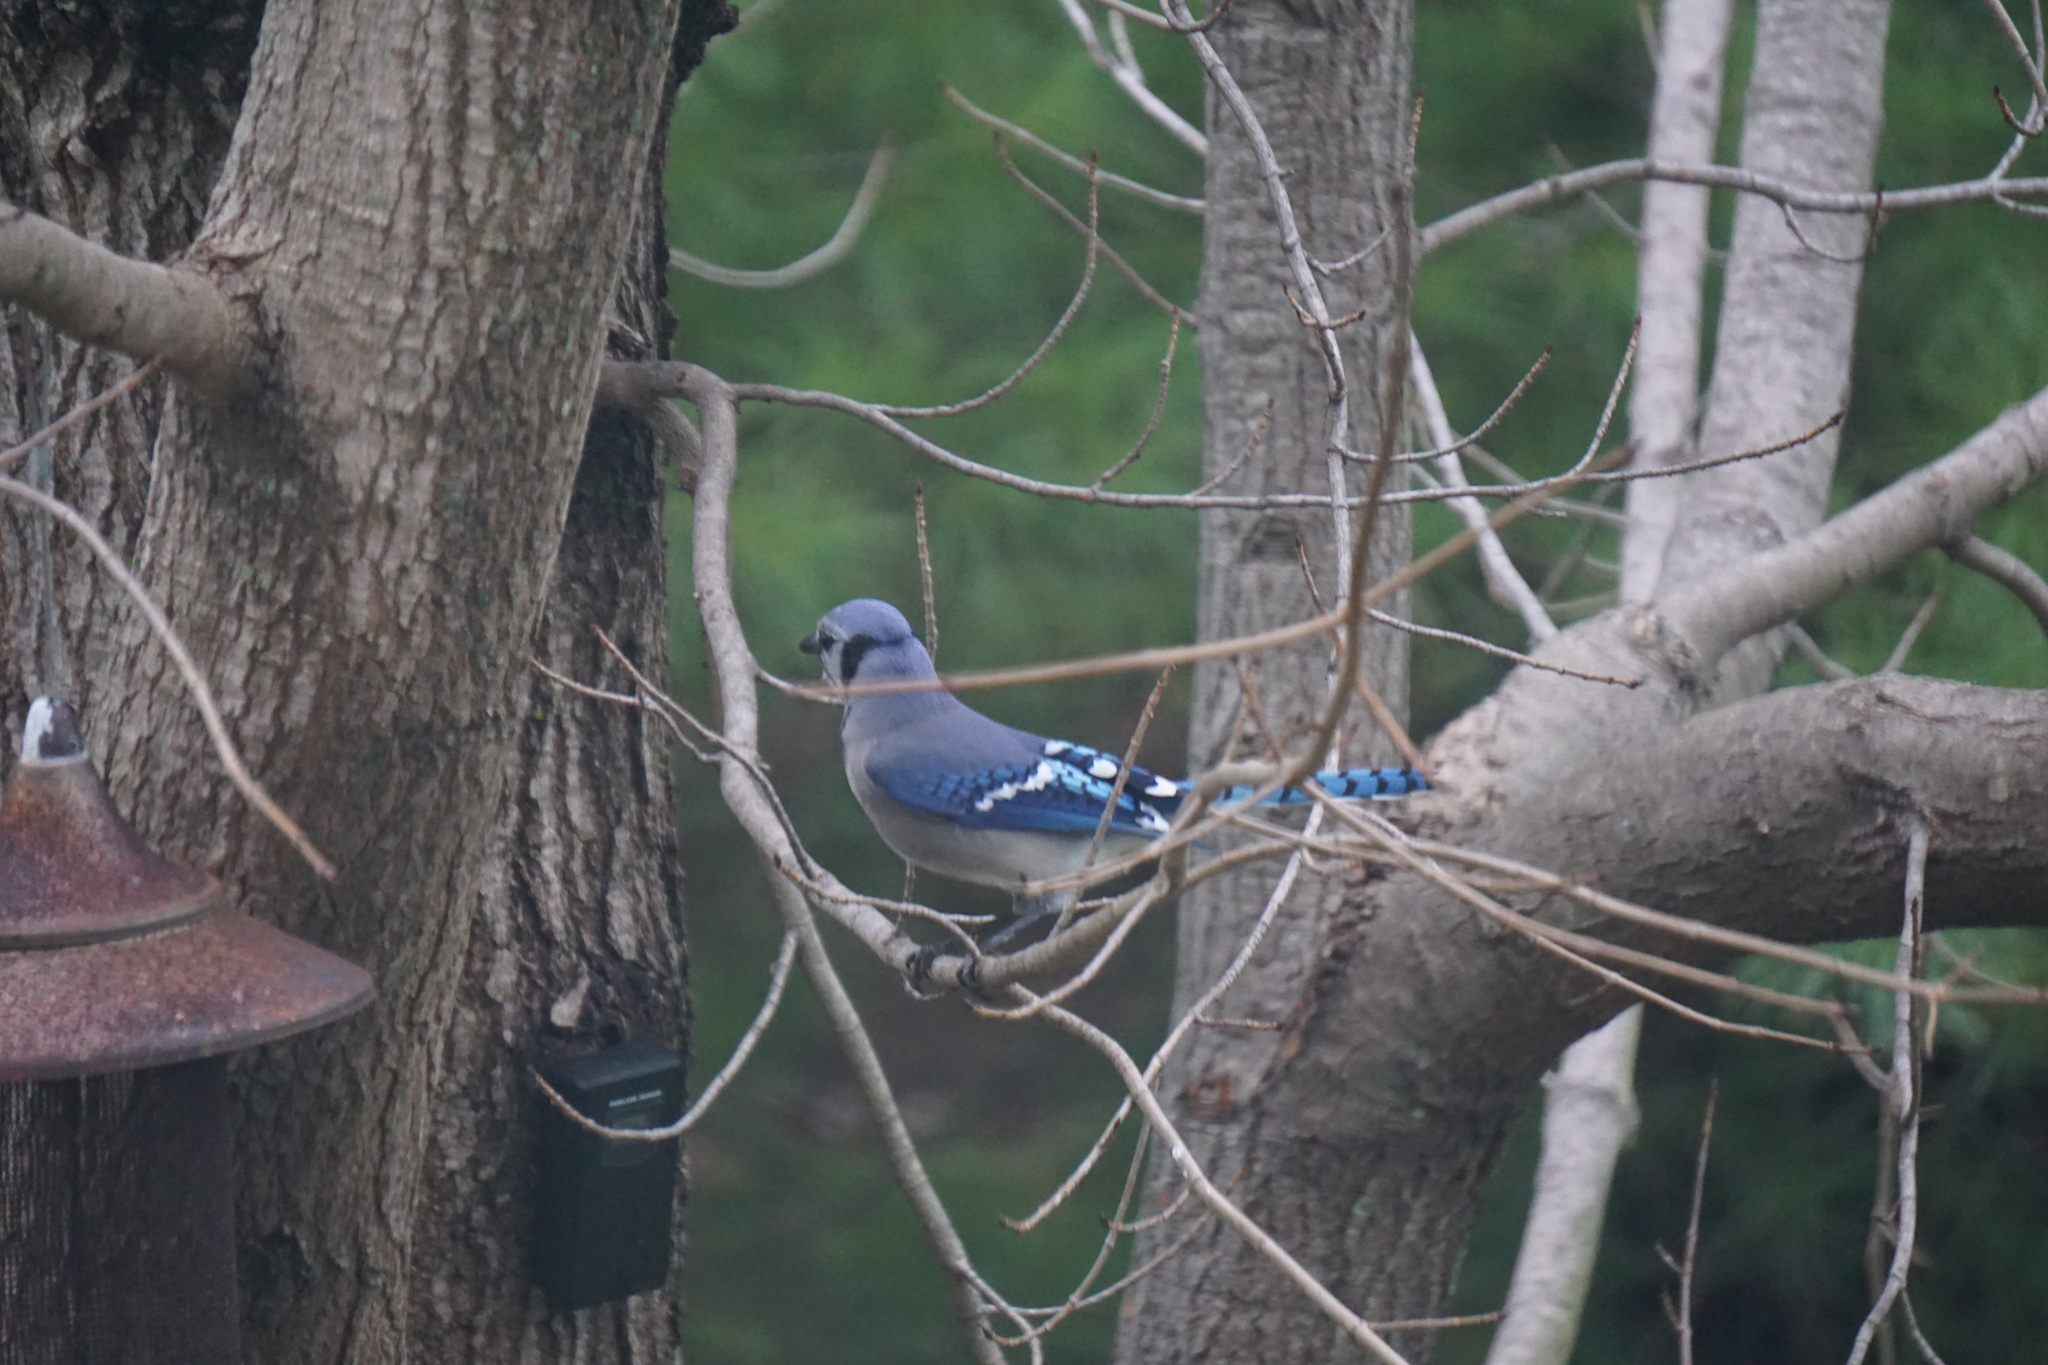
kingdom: Animalia
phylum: Chordata
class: Aves
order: Passeriformes
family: Corvidae
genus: Cyanocitta
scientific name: Cyanocitta cristata
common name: Blue jay
